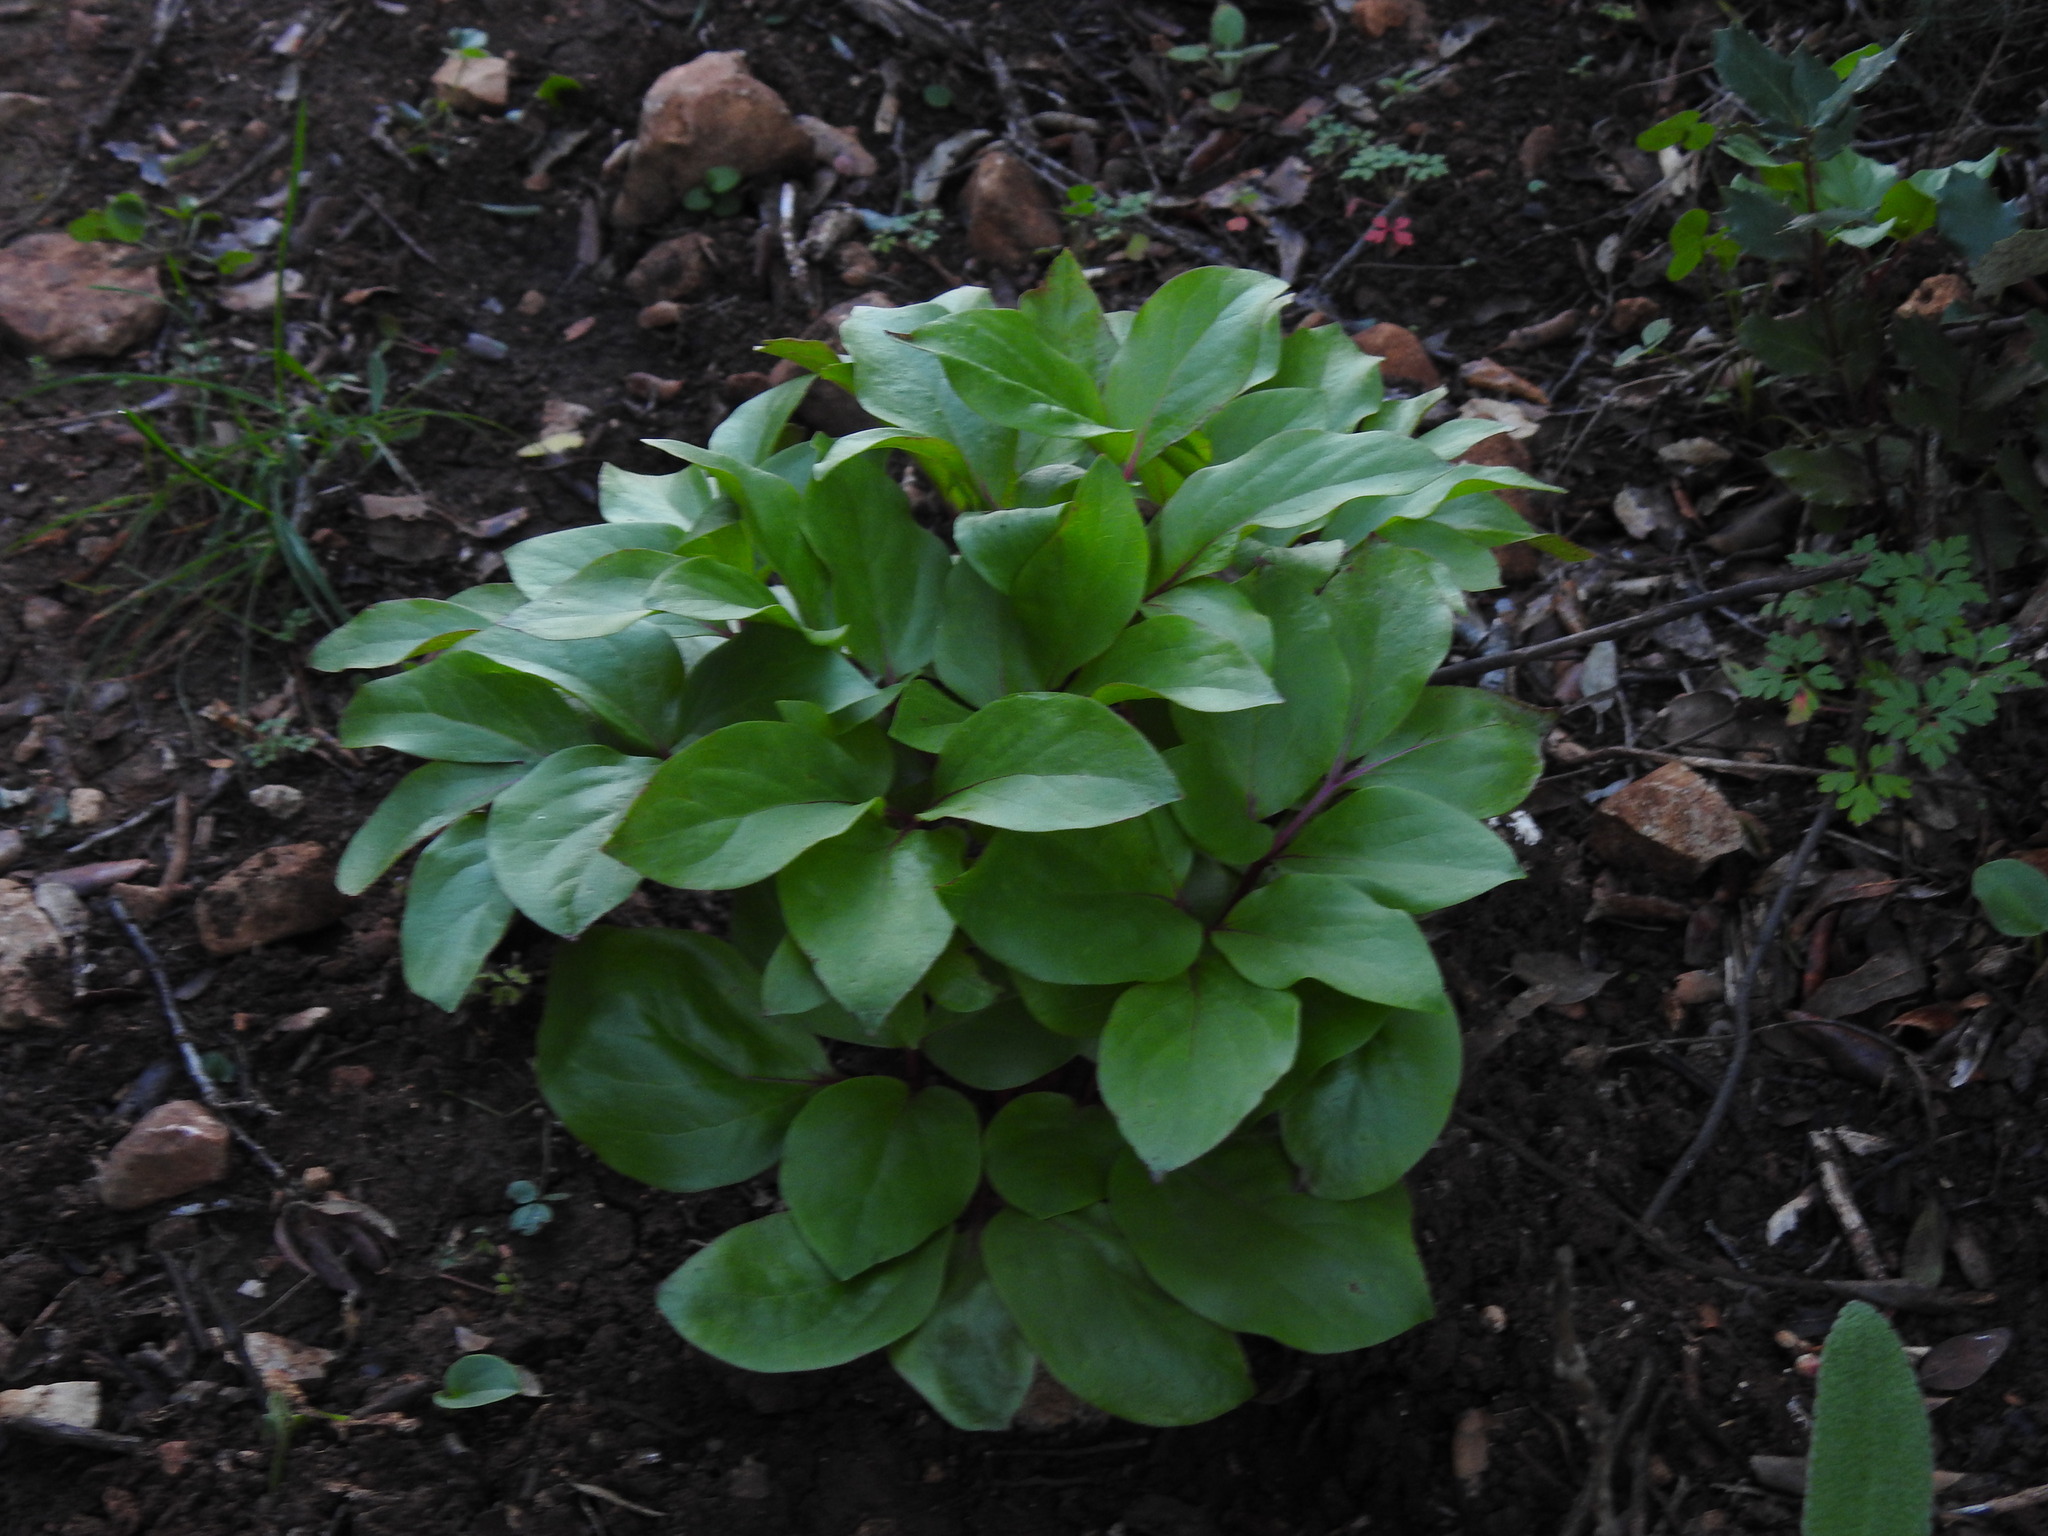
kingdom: Plantae
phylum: Tracheophyta
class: Magnoliopsida
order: Saxifragales
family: Paeoniaceae
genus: Paeonia
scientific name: Paeonia broteroi
